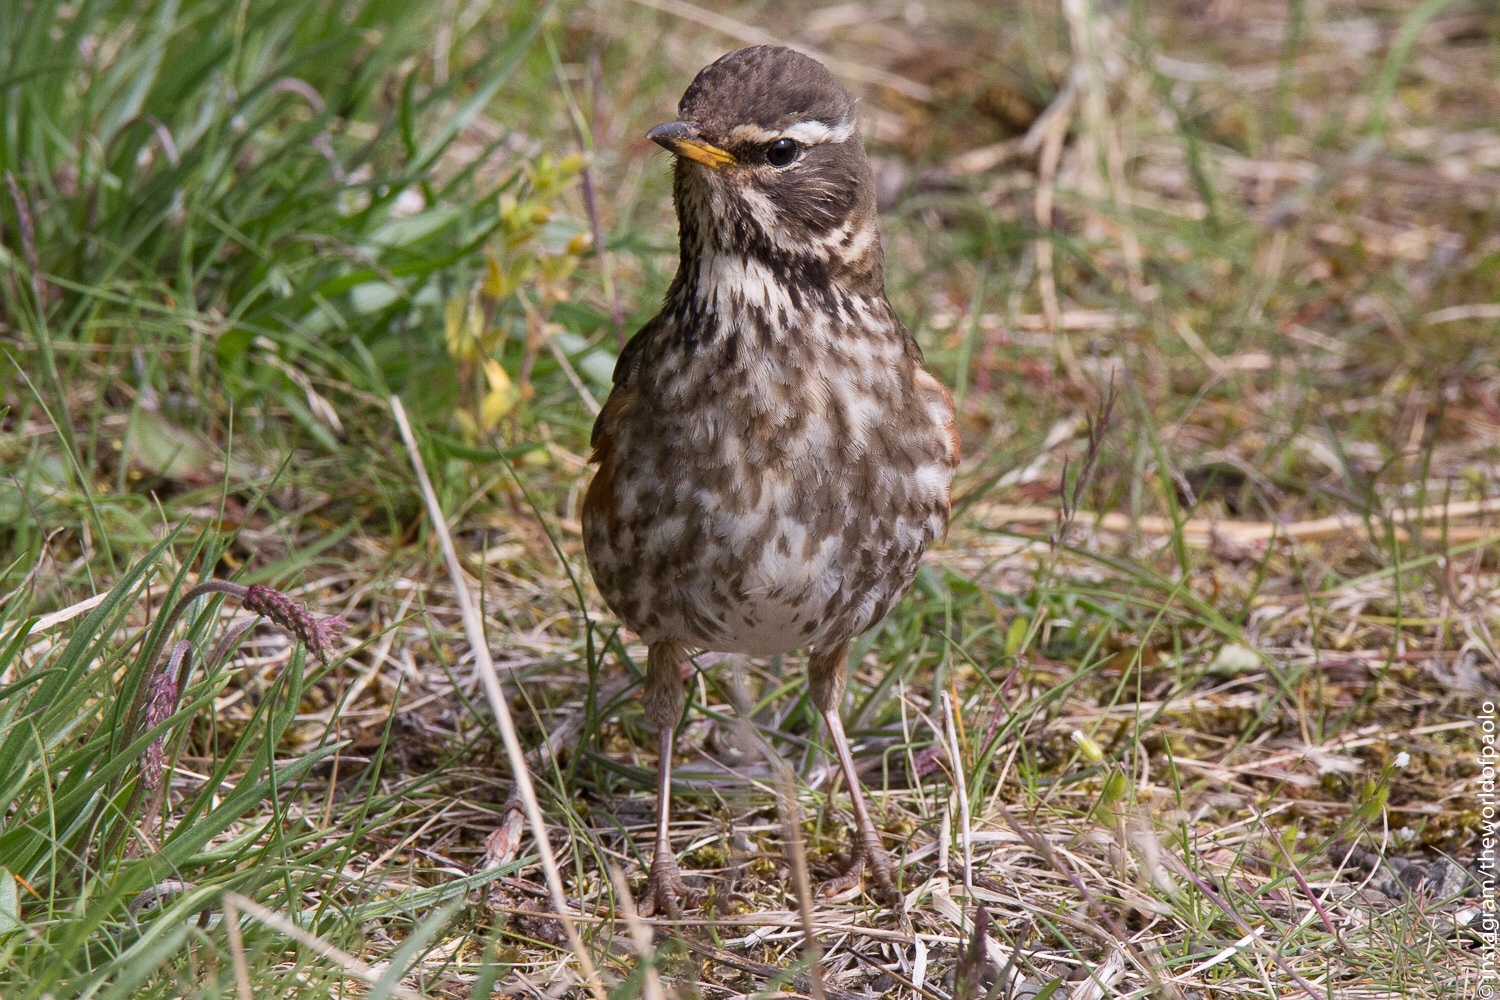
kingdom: Animalia
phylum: Chordata
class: Aves
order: Passeriformes
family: Turdidae
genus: Turdus
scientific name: Turdus iliacus
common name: Redwing
